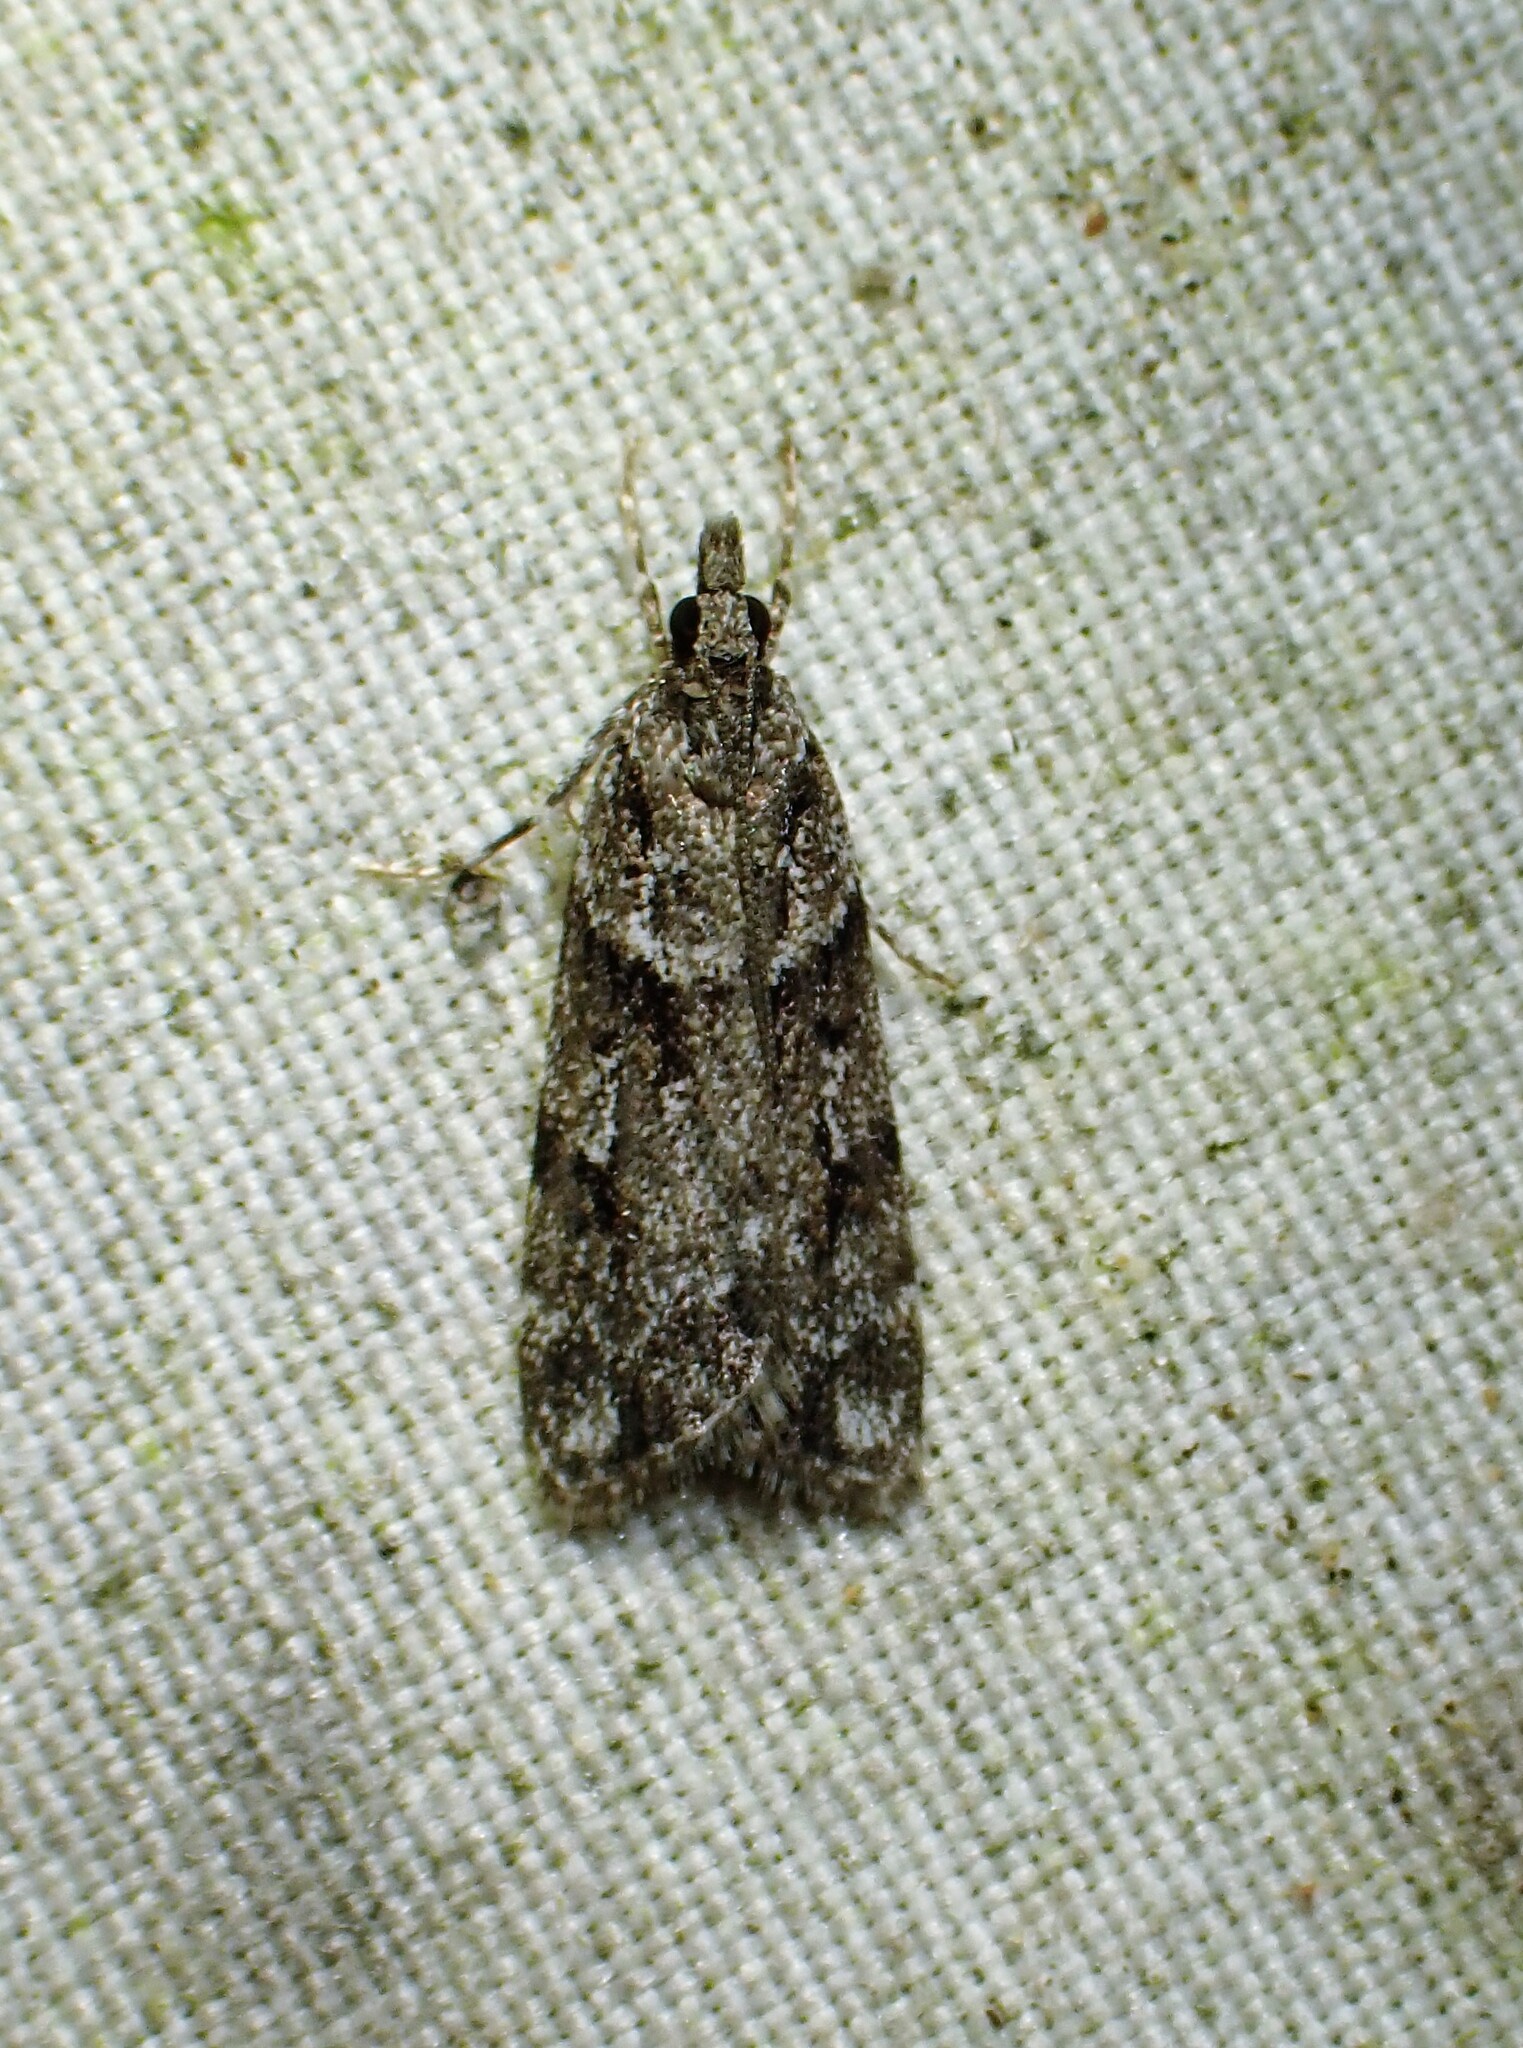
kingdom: Animalia
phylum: Arthropoda
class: Insecta
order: Lepidoptera
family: Crambidae
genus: Scoparia
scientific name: Scoparia biplagialis
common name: Double-striped scoparia moth
